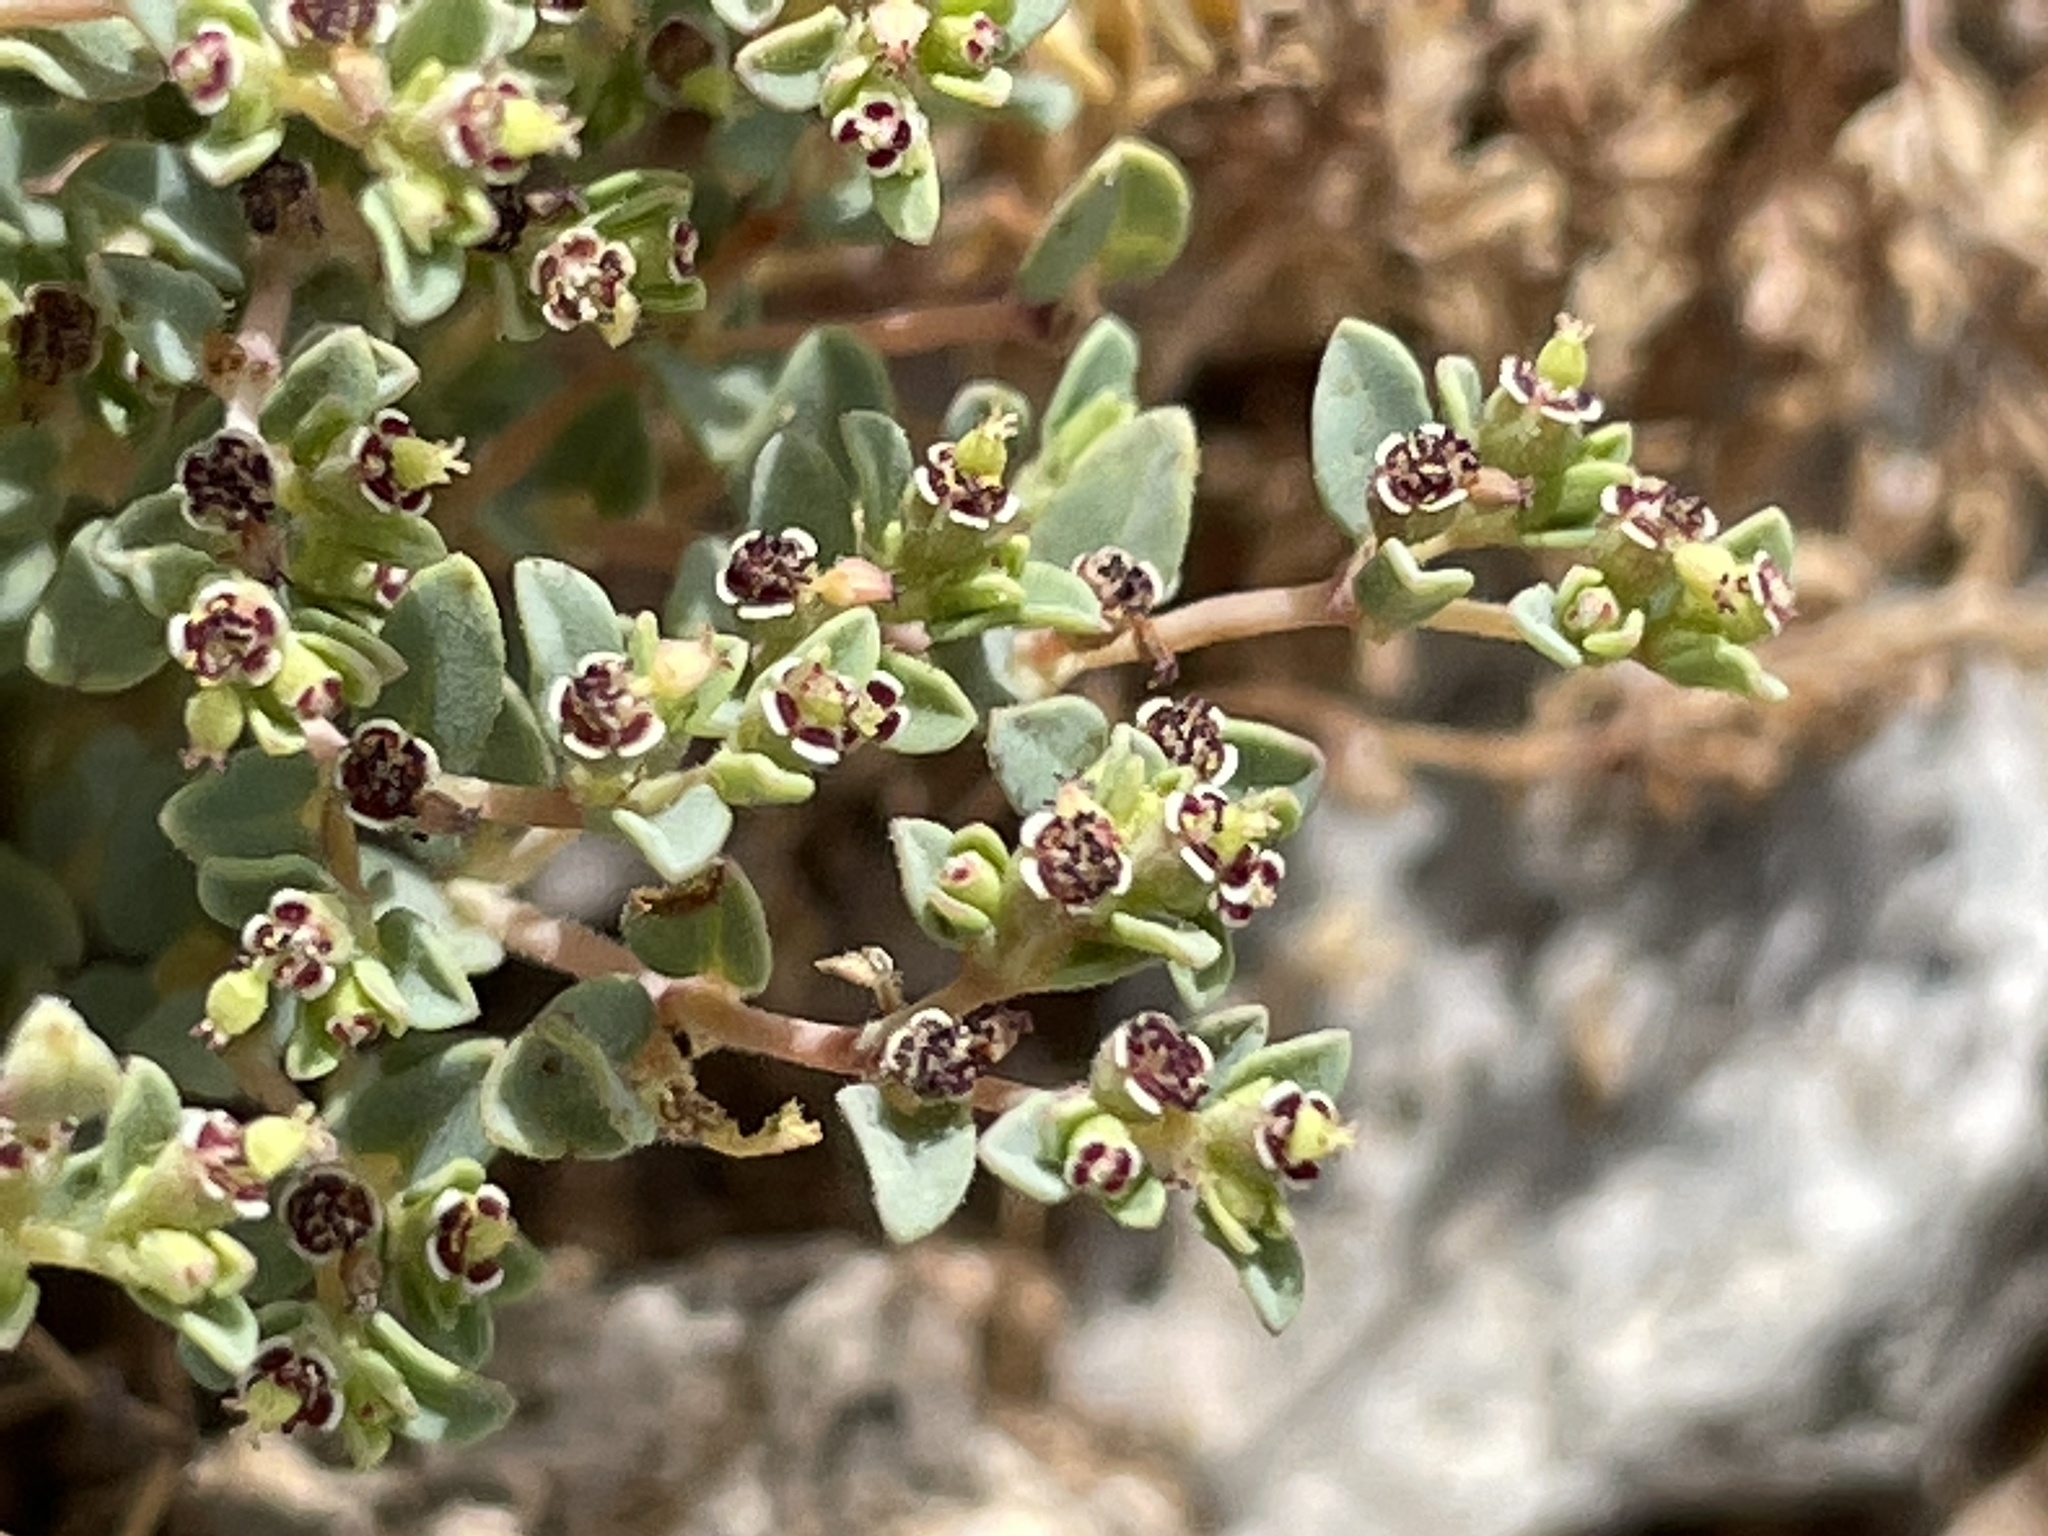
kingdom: Plantae
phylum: Tracheophyta
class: Magnoliopsida
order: Malpighiales
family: Euphorbiaceae
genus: Euphorbia
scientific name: Euphorbia polycarpa
